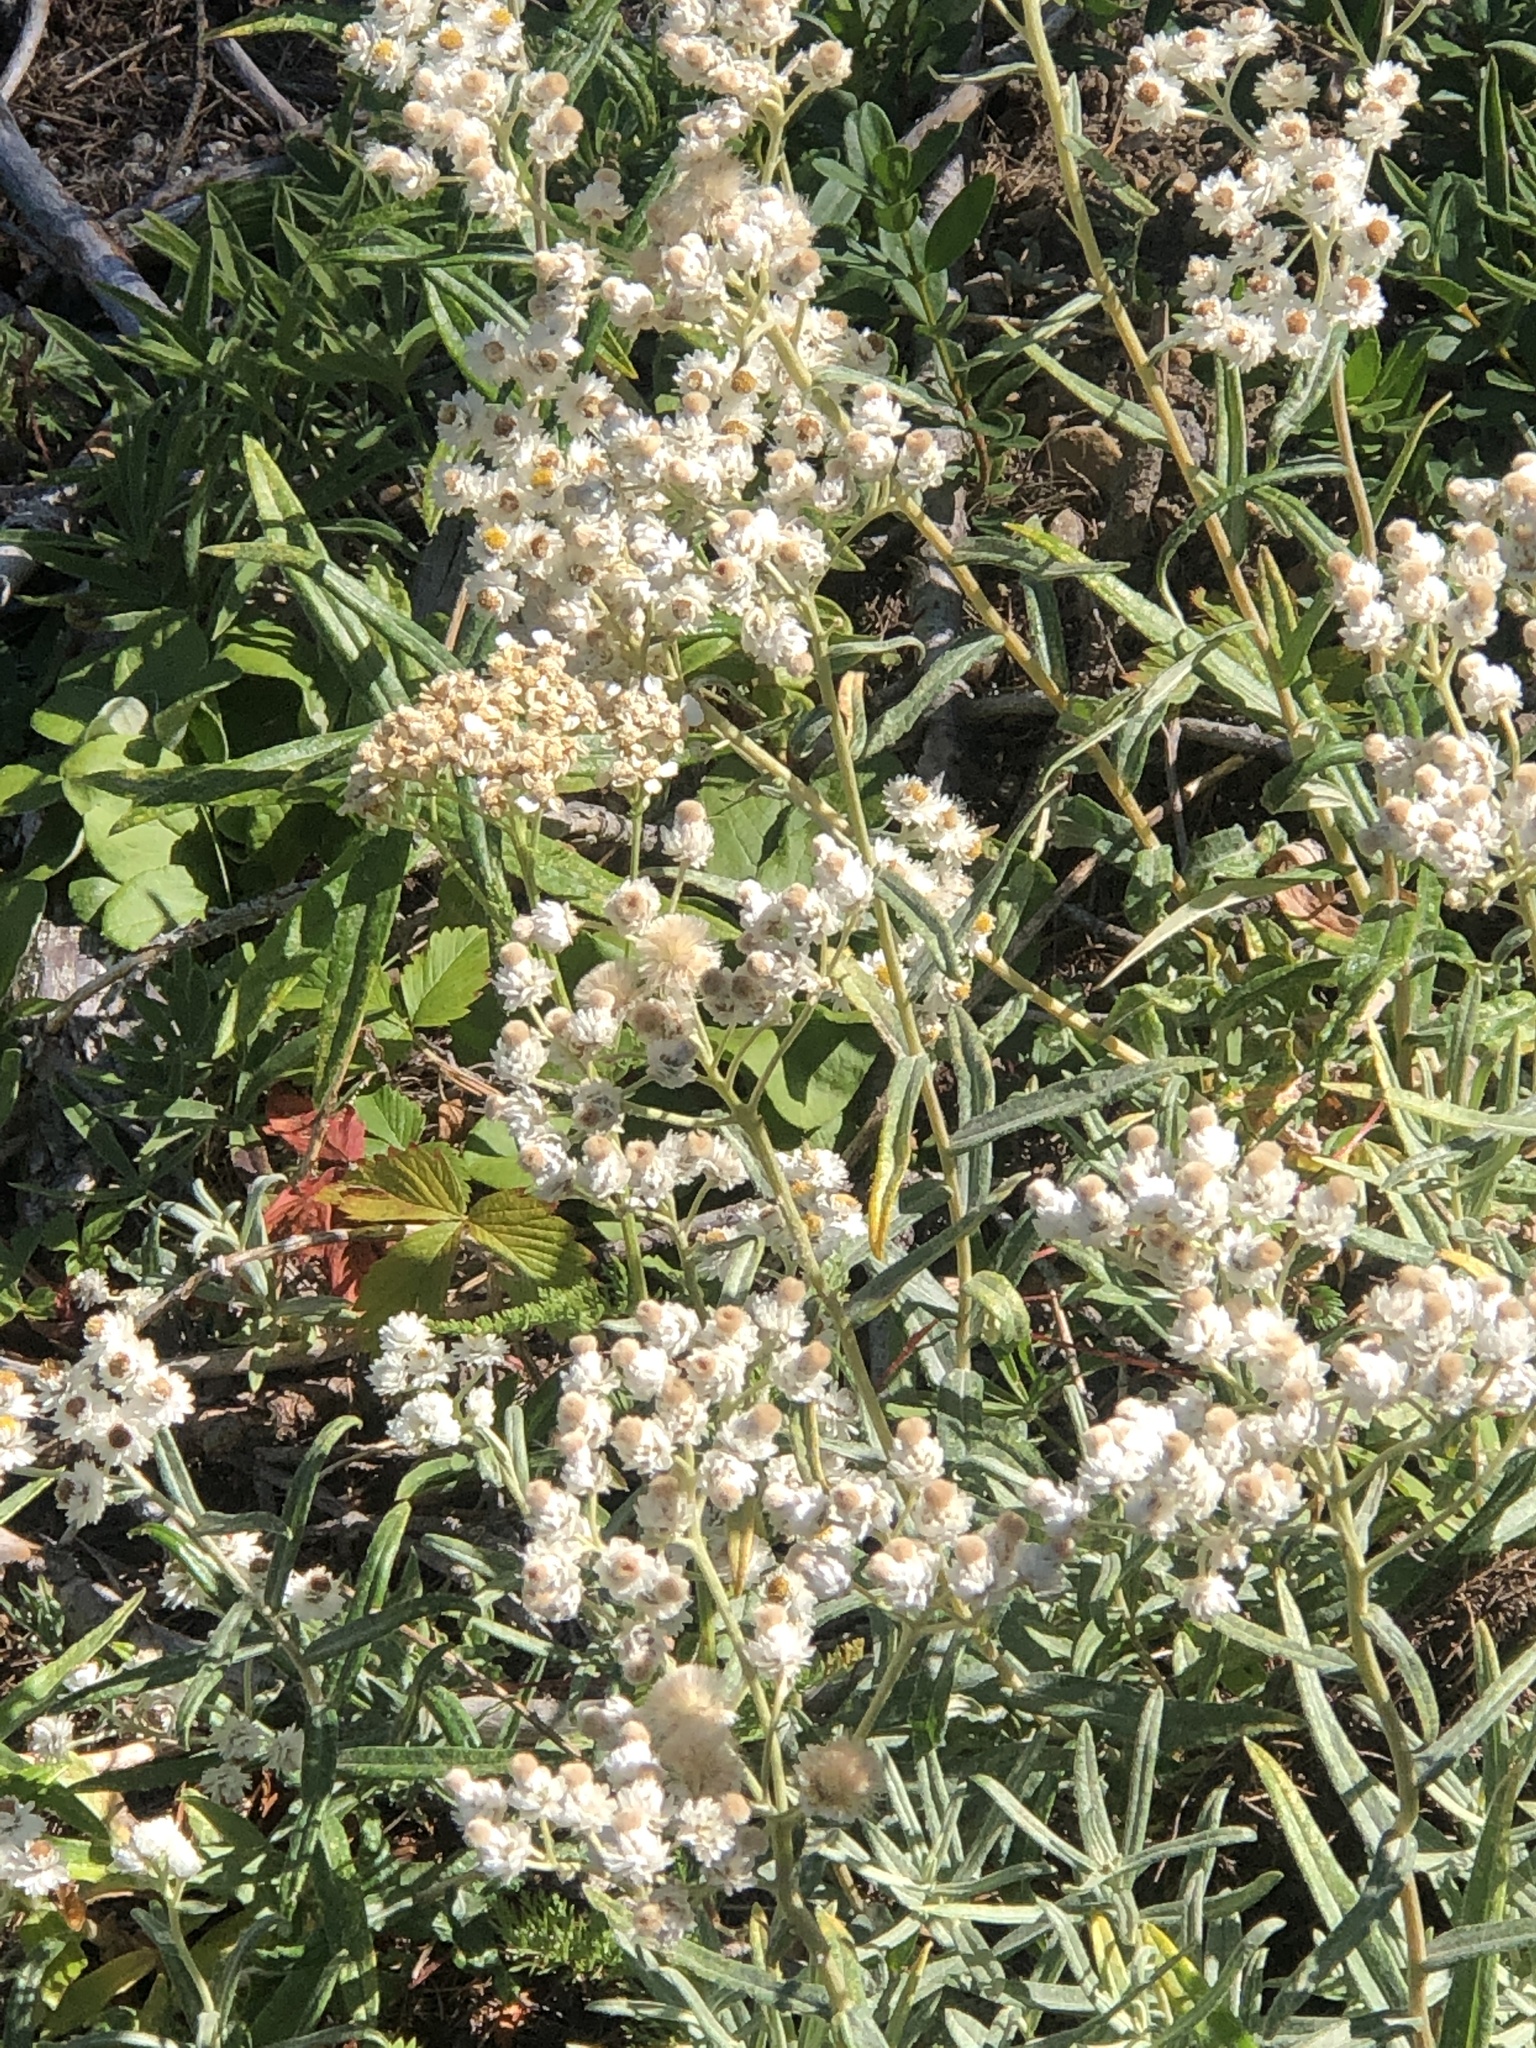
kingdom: Plantae
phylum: Tracheophyta
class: Magnoliopsida
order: Asterales
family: Asteraceae
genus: Anaphalis
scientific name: Anaphalis margaritacea
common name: Pearly everlasting
